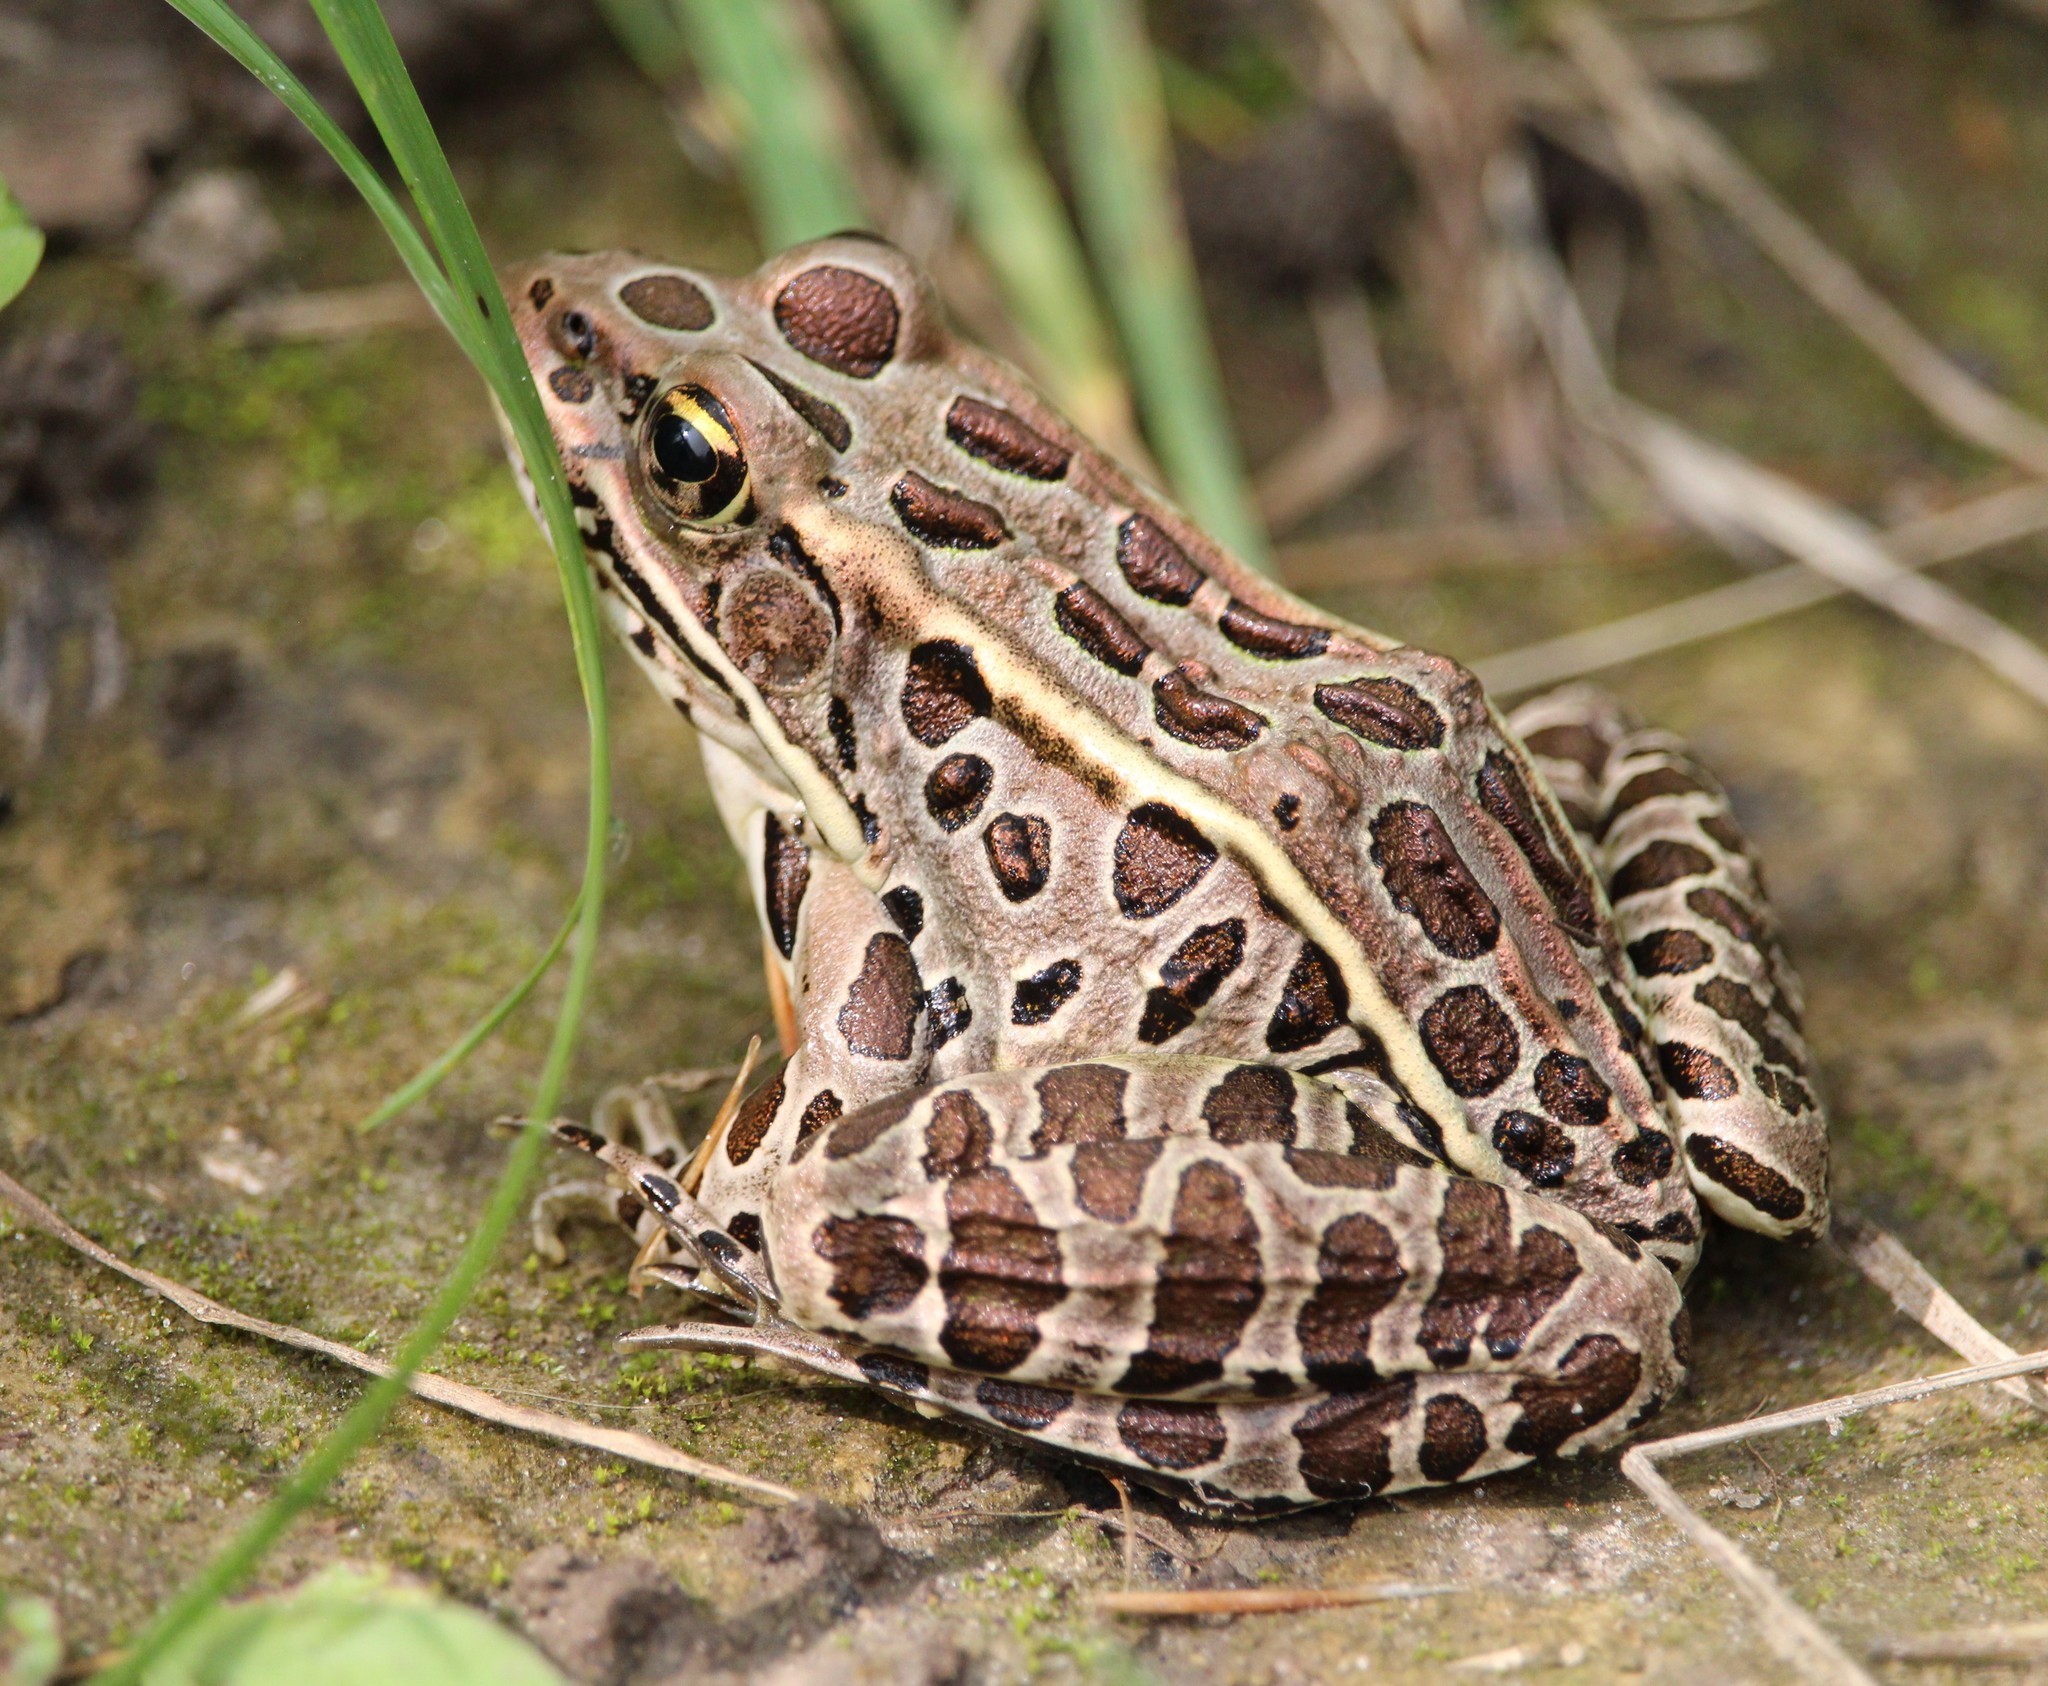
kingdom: Animalia
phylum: Chordata
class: Amphibia
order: Anura
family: Ranidae
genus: Lithobates
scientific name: Lithobates pipiens
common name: Northern leopard frog
